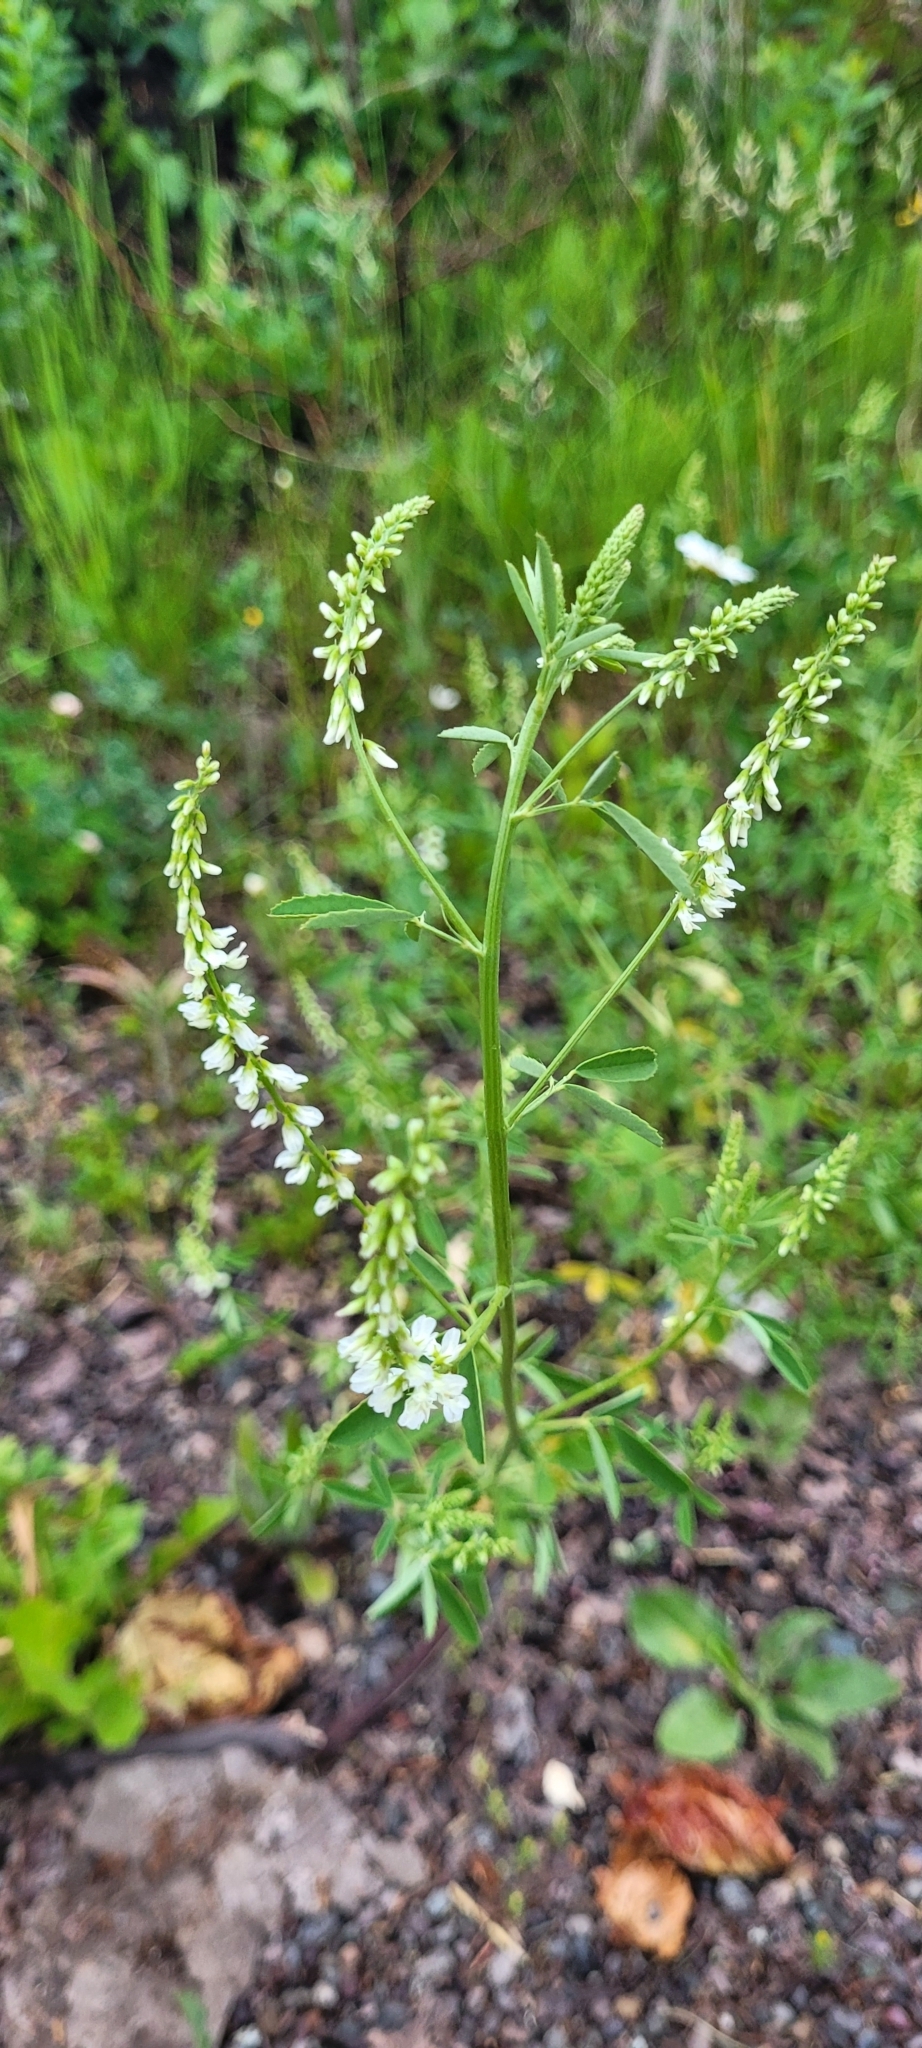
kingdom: Plantae
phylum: Tracheophyta
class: Magnoliopsida
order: Fabales
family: Fabaceae
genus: Melilotus
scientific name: Melilotus albus
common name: White melilot
